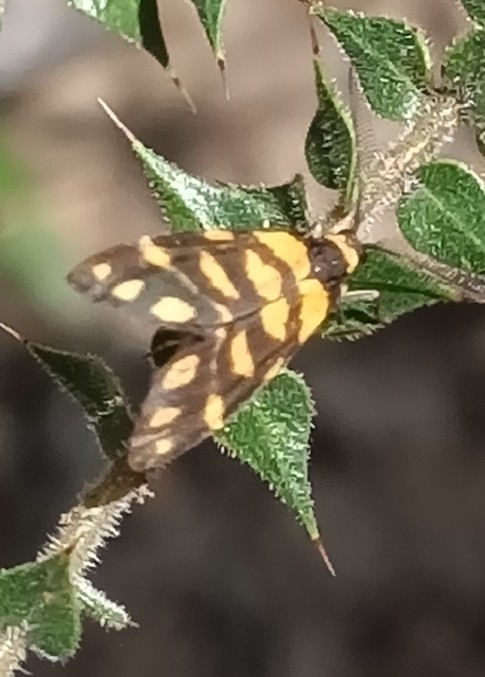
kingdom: Animalia
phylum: Arthropoda
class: Insecta
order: Lepidoptera
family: Erebidae
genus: Asura
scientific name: Asura lydia
